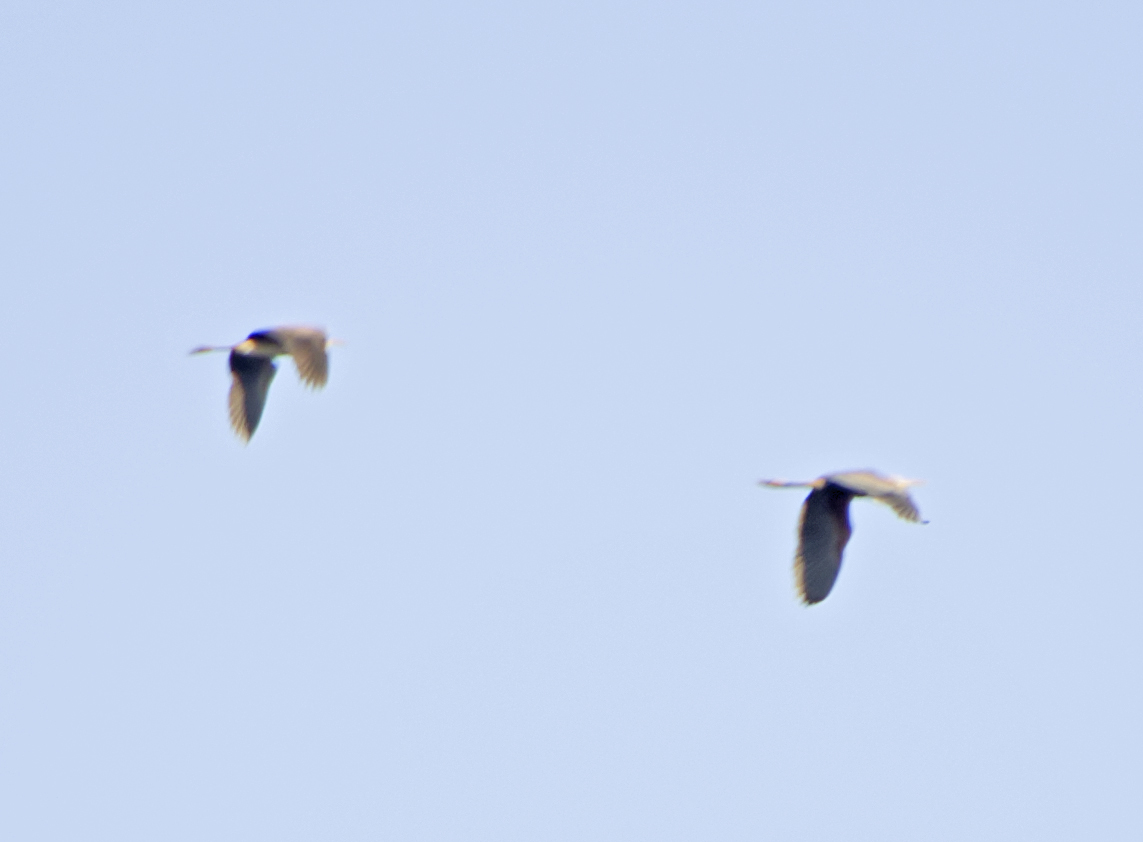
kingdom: Animalia
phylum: Chordata
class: Aves
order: Pelecaniformes
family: Ardeidae
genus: Ardea
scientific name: Ardea purpurea
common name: Purple heron
